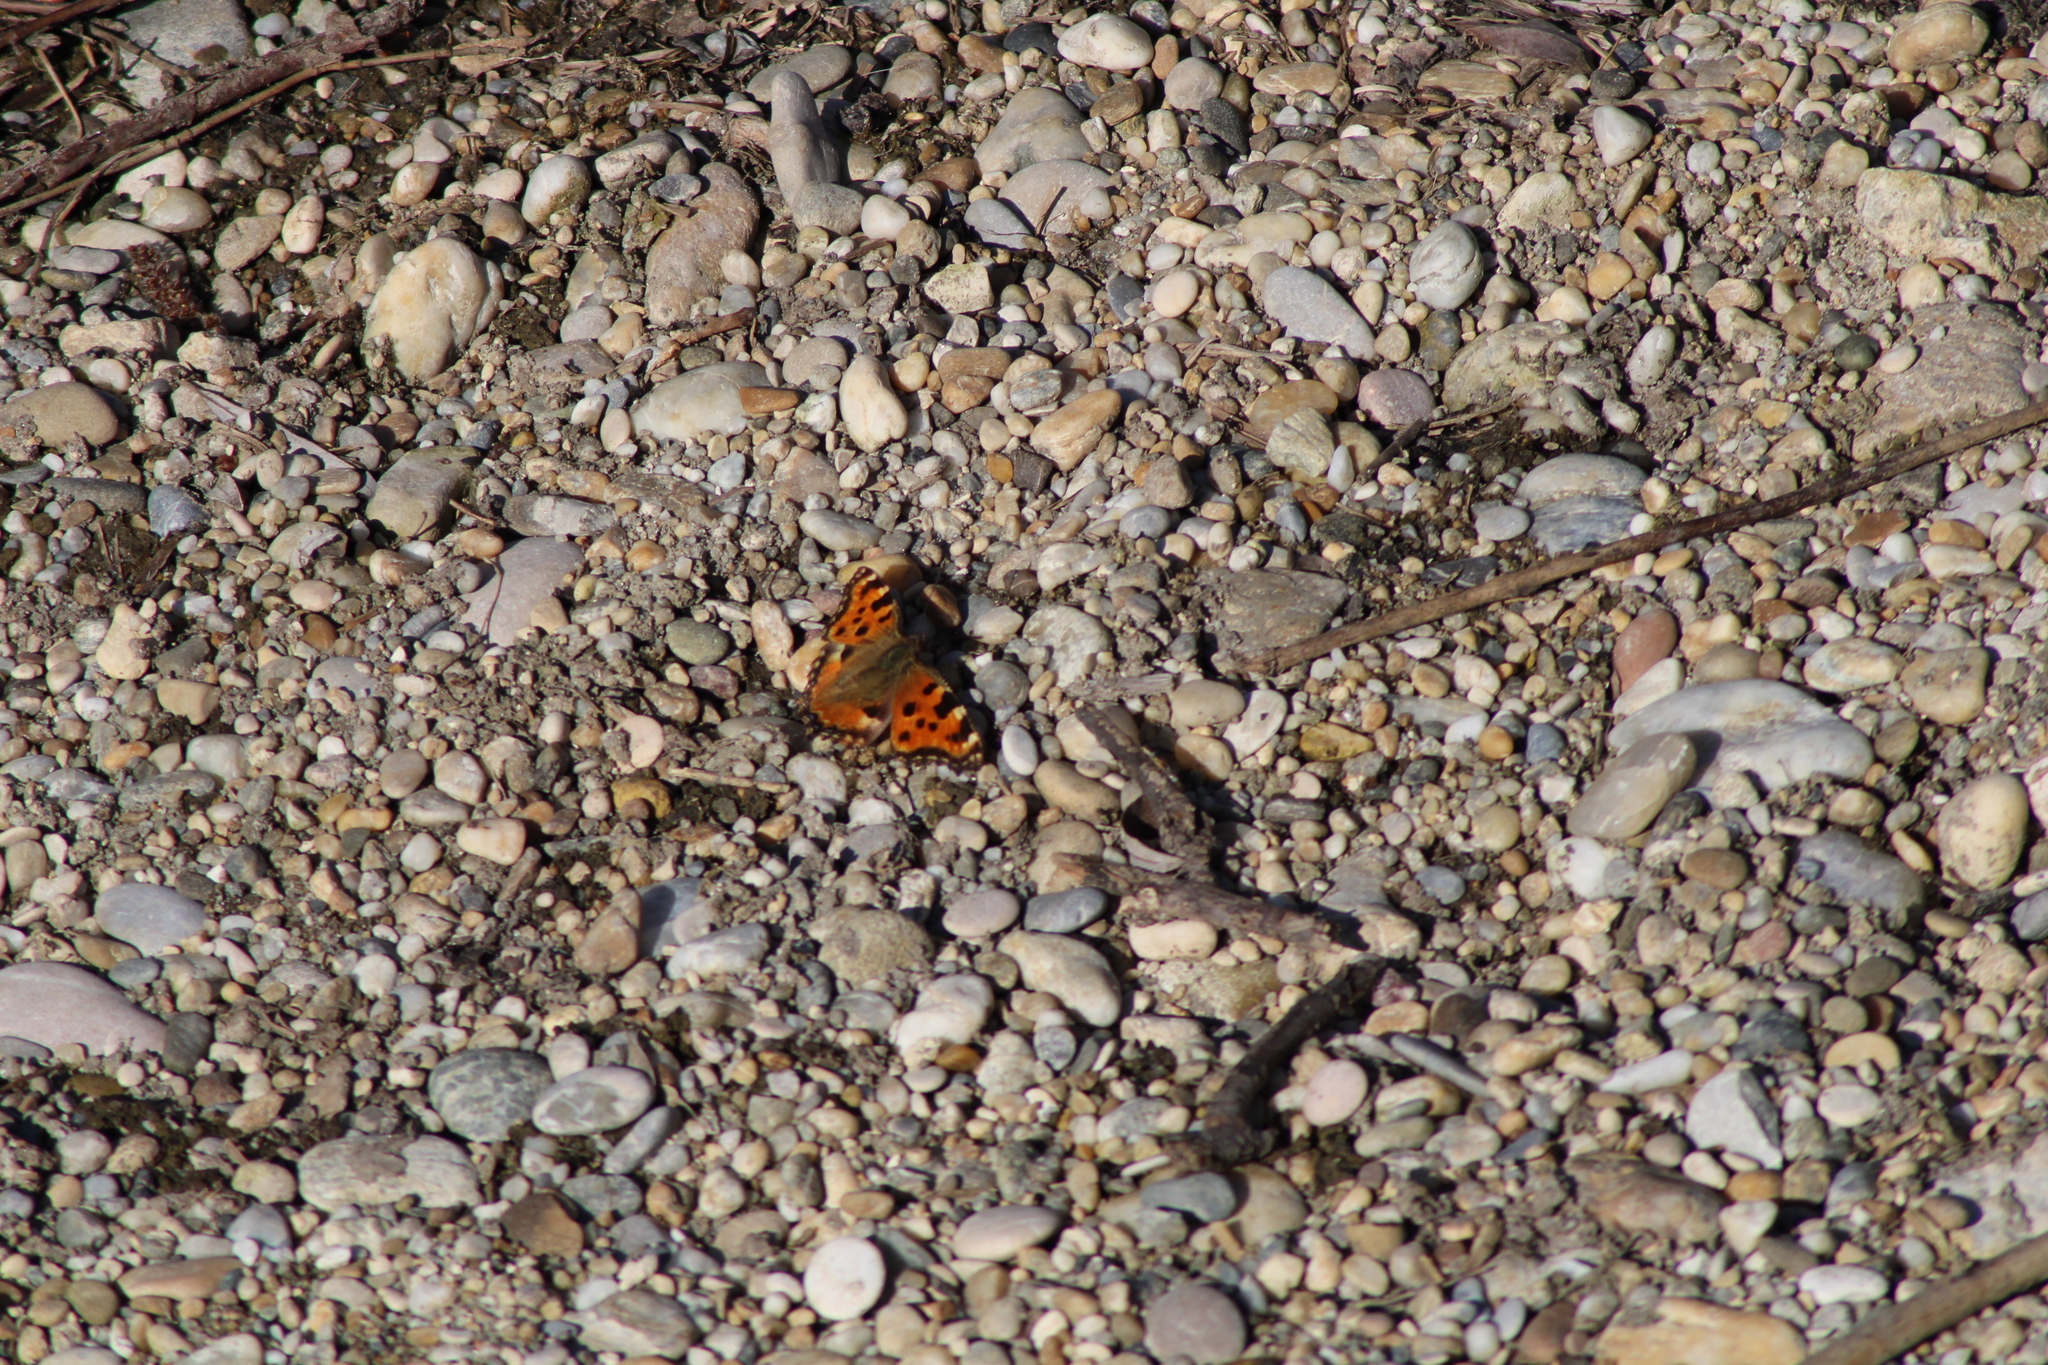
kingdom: Animalia
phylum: Arthropoda
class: Insecta
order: Lepidoptera
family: Nymphalidae
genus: Nymphalis
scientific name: Nymphalis polychloros
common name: Large tortoiseshell
